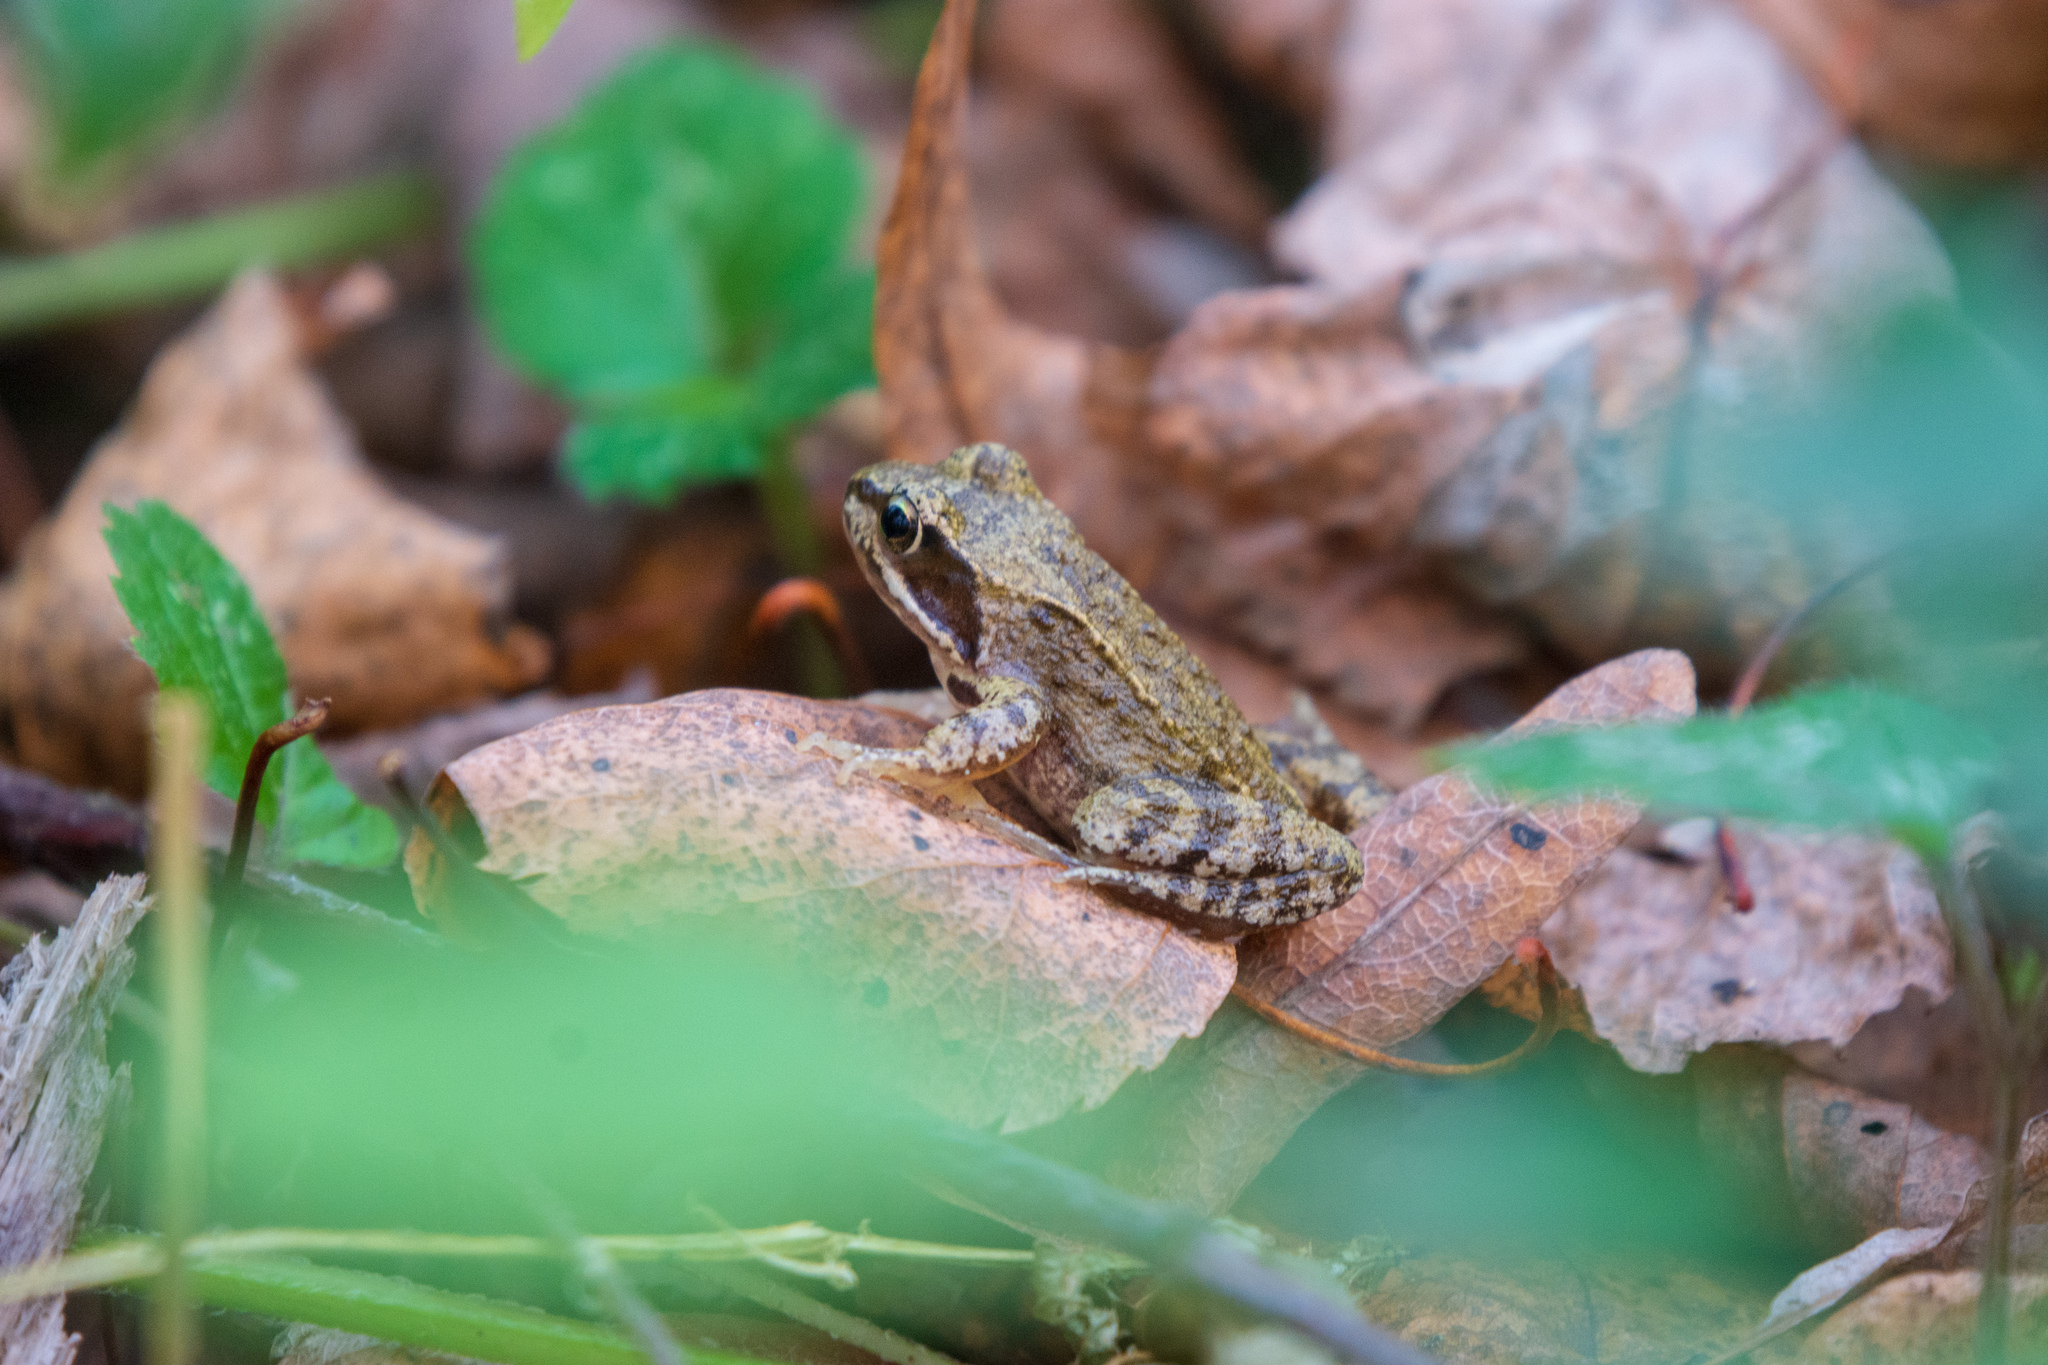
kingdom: Animalia
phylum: Chordata
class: Amphibia
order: Anura
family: Ranidae
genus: Rana
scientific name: Rana temporaria
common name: Common frog
